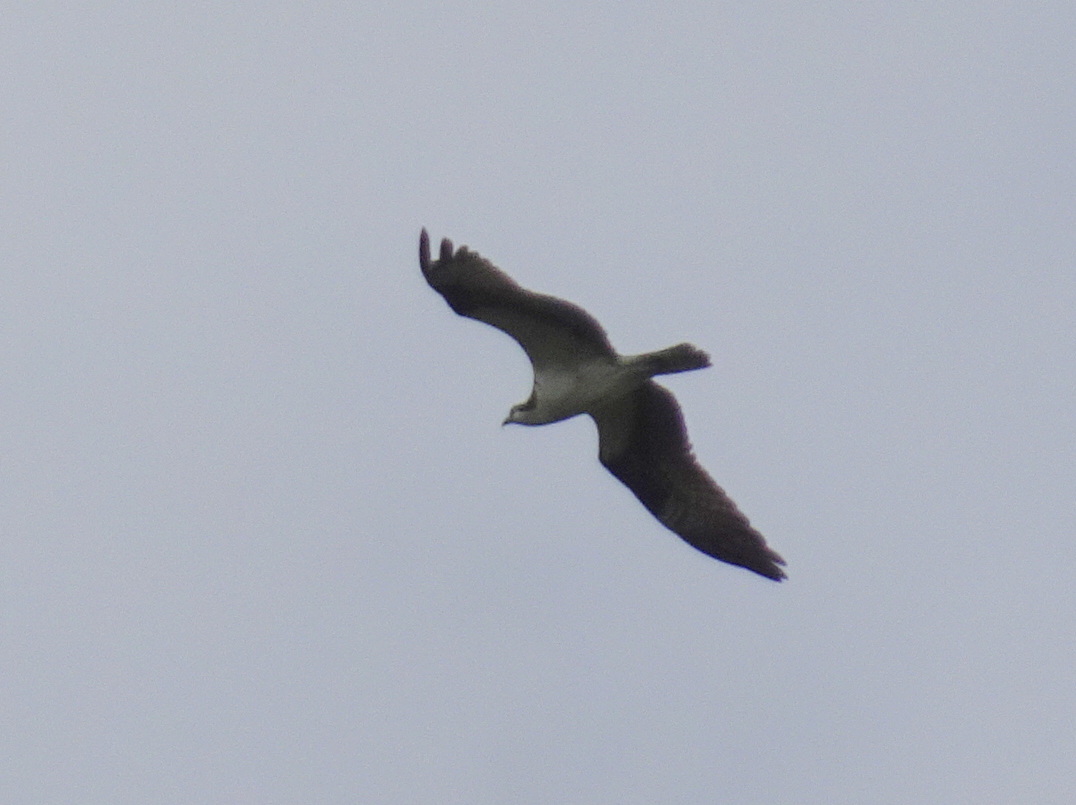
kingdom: Animalia
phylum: Chordata
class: Aves
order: Accipitriformes
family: Pandionidae
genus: Pandion
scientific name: Pandion haliaetus
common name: Osprey
